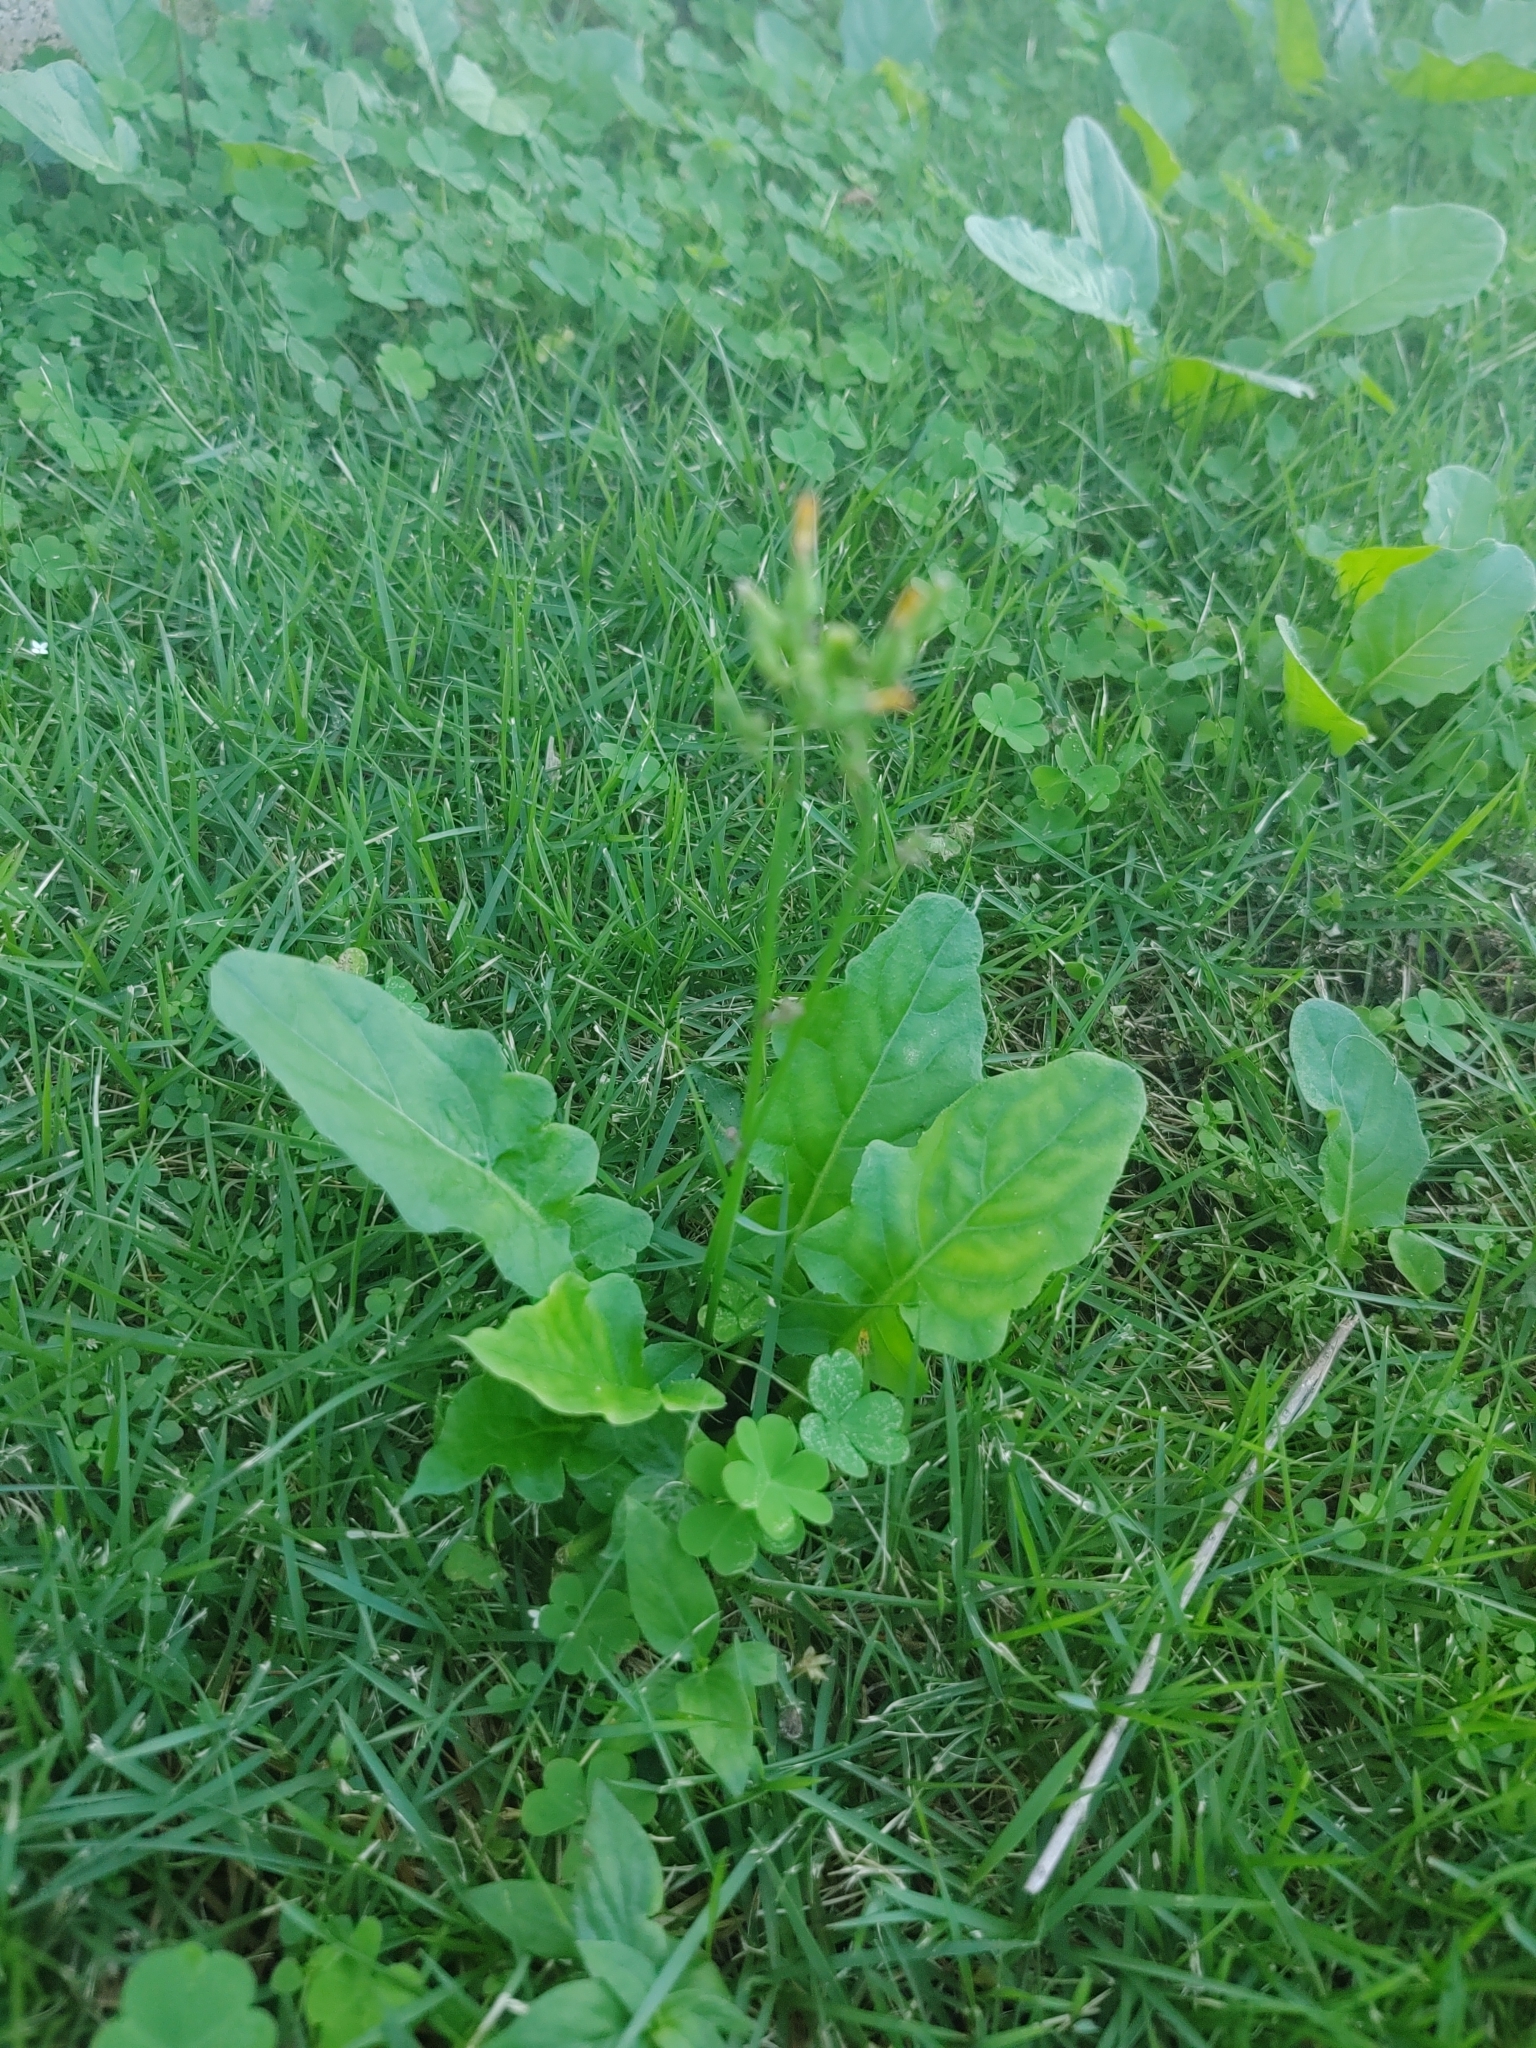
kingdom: Plantae
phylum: Tracheophyta
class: Magnoliopsida
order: Asterales
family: Asteraceae
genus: Youngia
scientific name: Youngia japonica
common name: Oriental false hawksbeard
